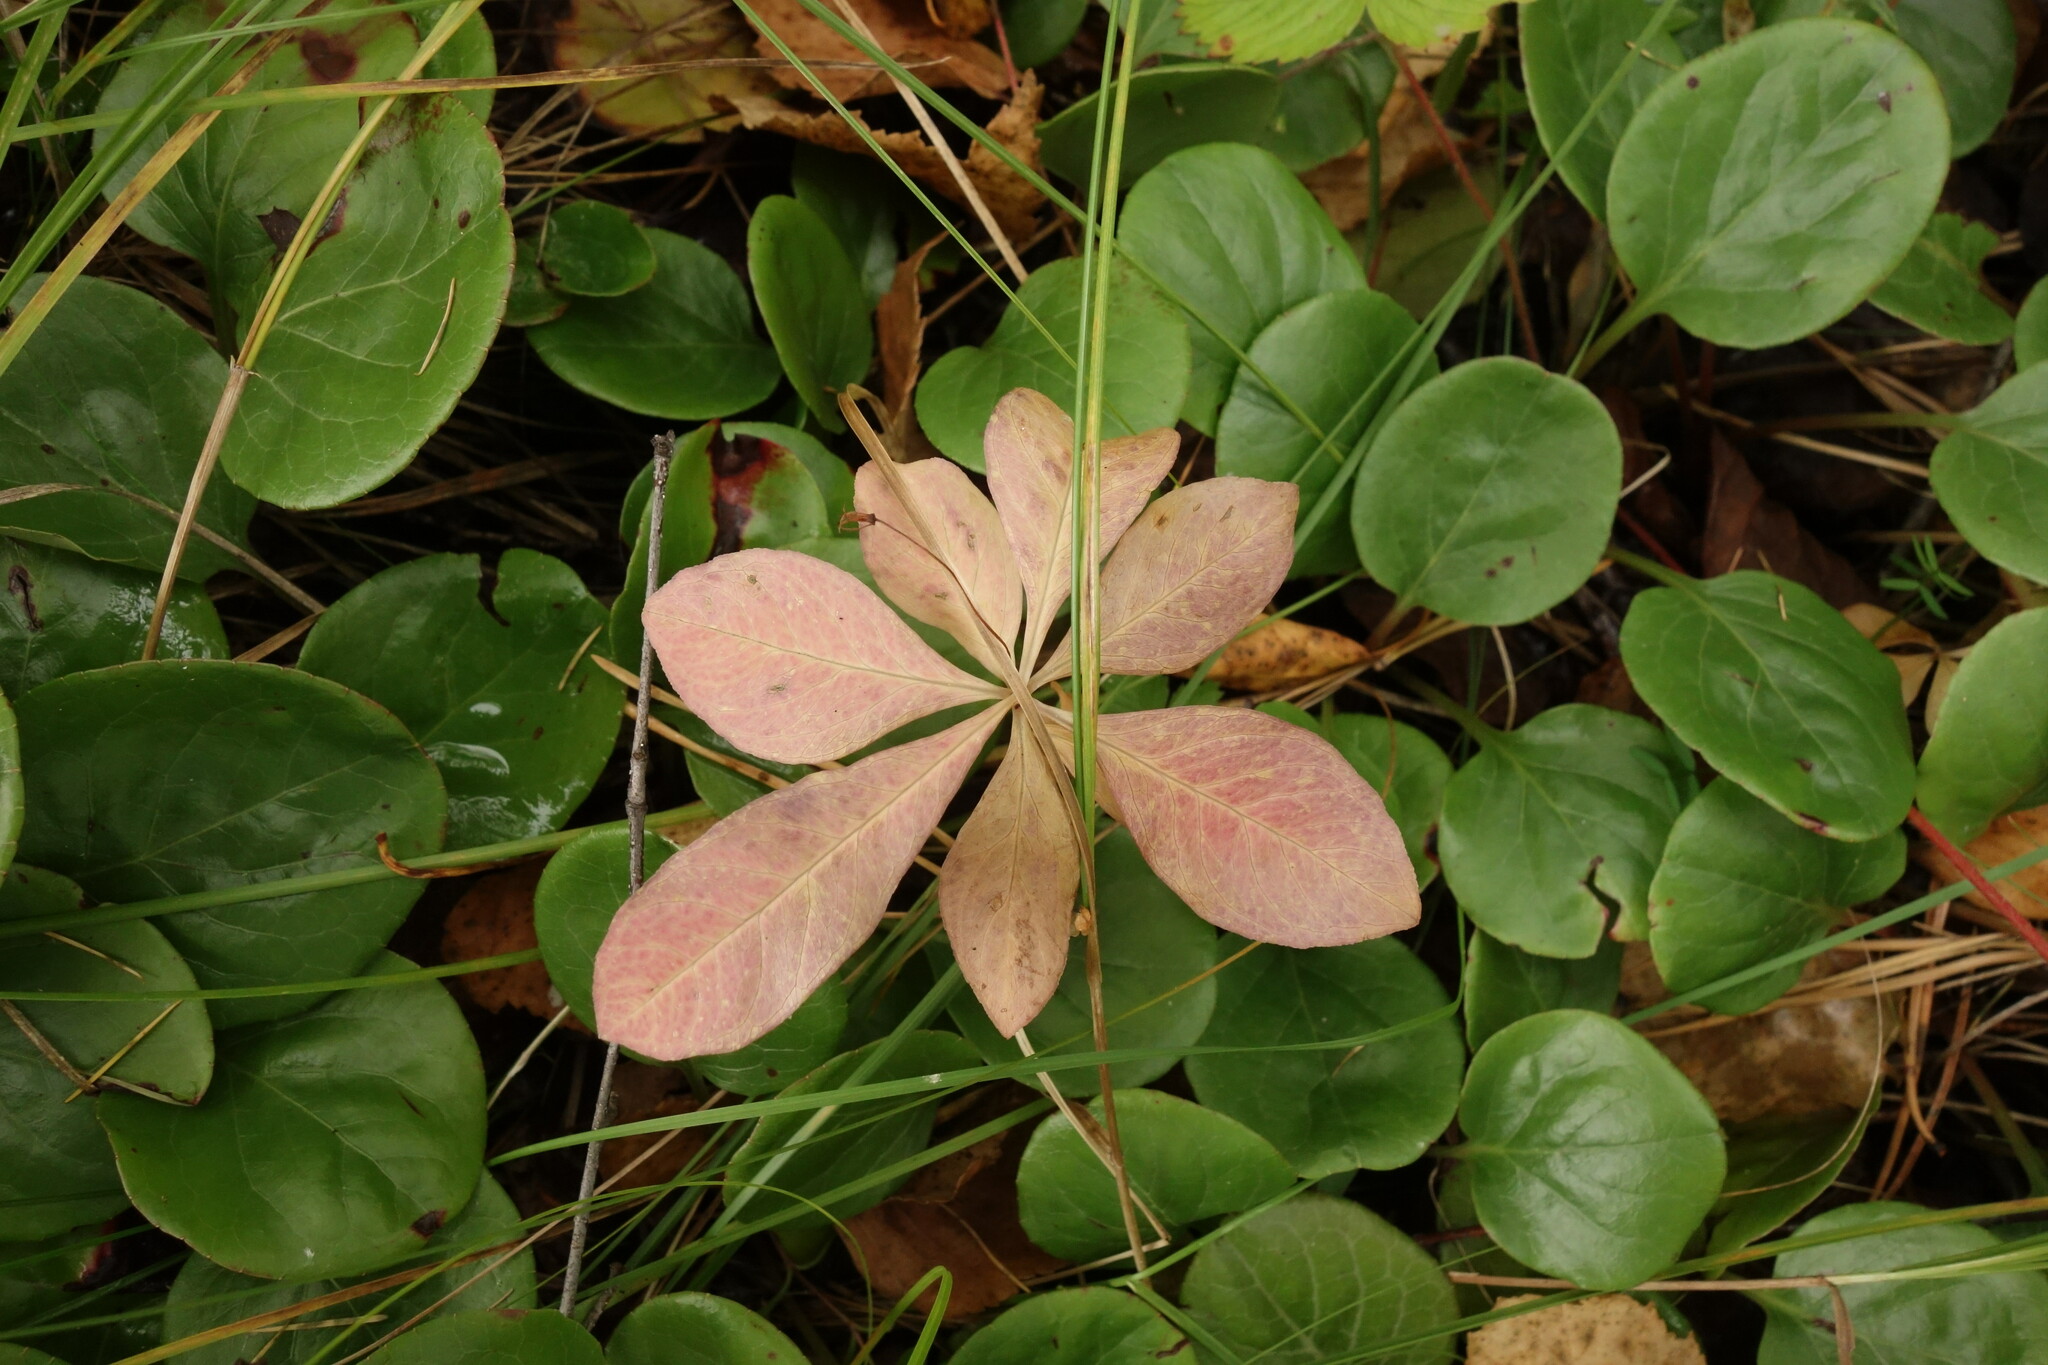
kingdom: Plantae
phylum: Tracheophyta
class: Magnoliopsida
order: Ericales
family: Primulaceae
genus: Lysimachia
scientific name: Lysimachia europaea
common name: Arctic starflower
